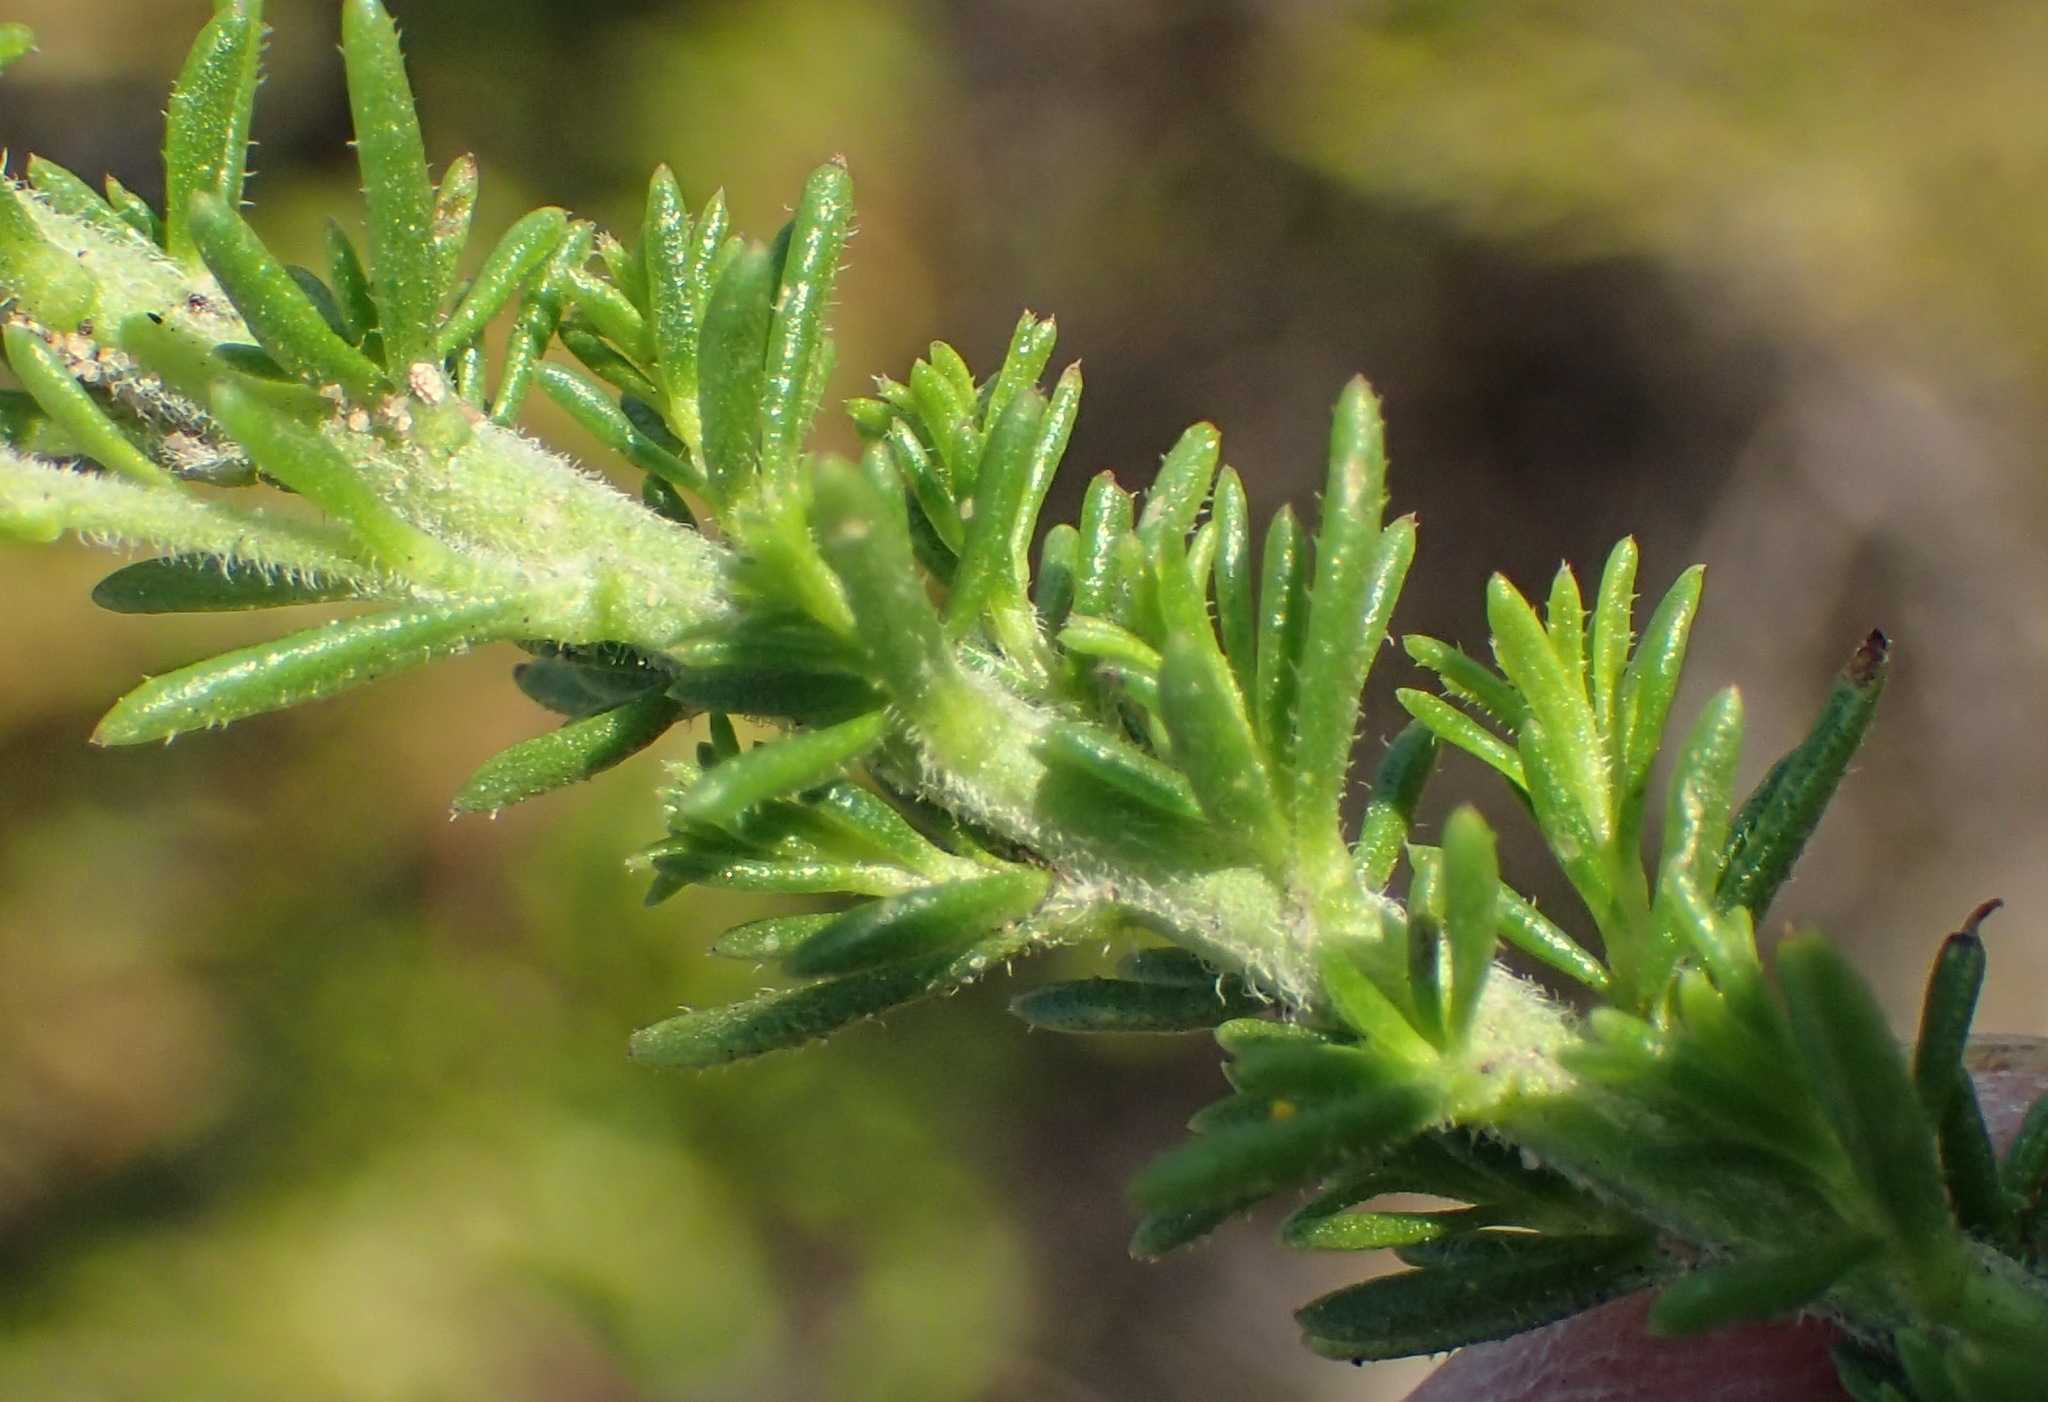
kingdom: Plantae
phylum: Tracheophyta
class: Magnoliopsida
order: Lamiales
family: Scrophulariaceae
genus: Selago
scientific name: Selago villicaulis
